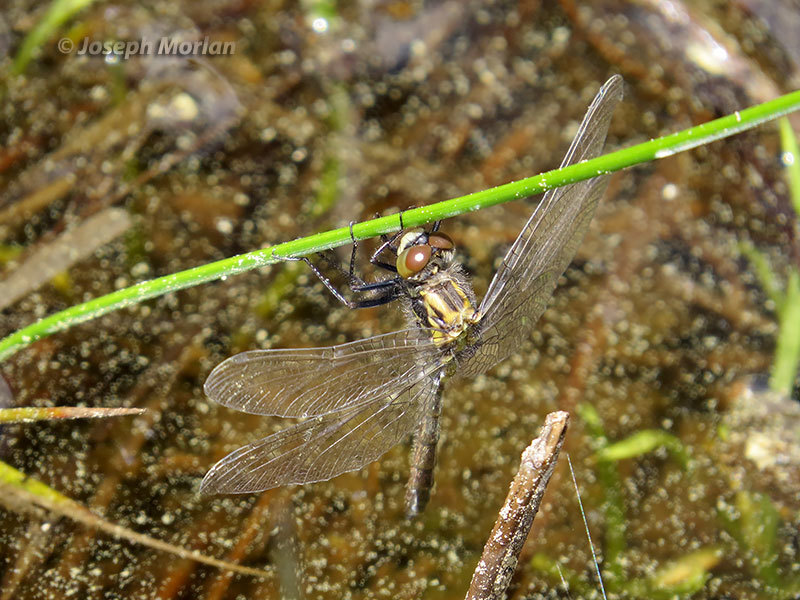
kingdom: Animalia
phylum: Arthropoda
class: Insecta
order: Odonata
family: Libellulidae
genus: Leucorrhinia
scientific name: Leucorrhinia glacialis
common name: Crimson-ringed whiteface
